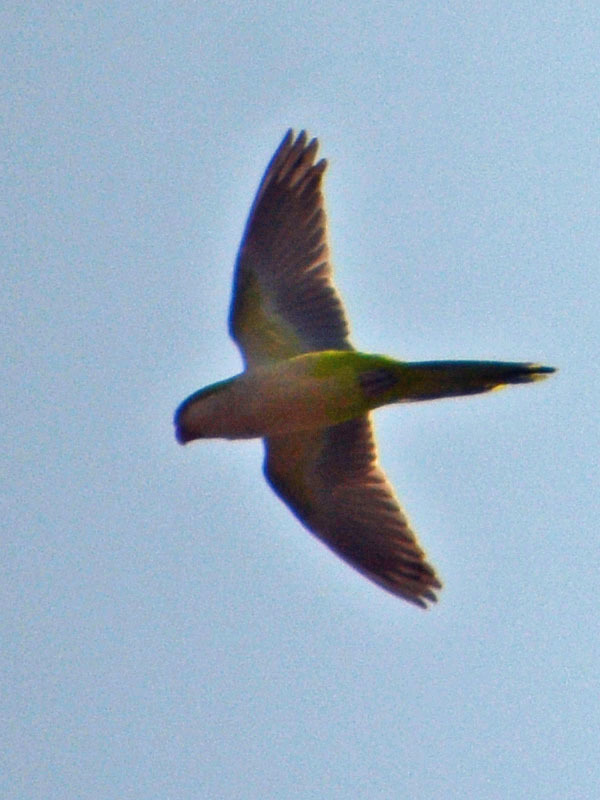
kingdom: Animalia
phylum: Chordata
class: Aves
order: Psittaciformes
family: Psittacidae
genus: Myiopsitta
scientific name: Myiopsitta monachus
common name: Monk parakeet
